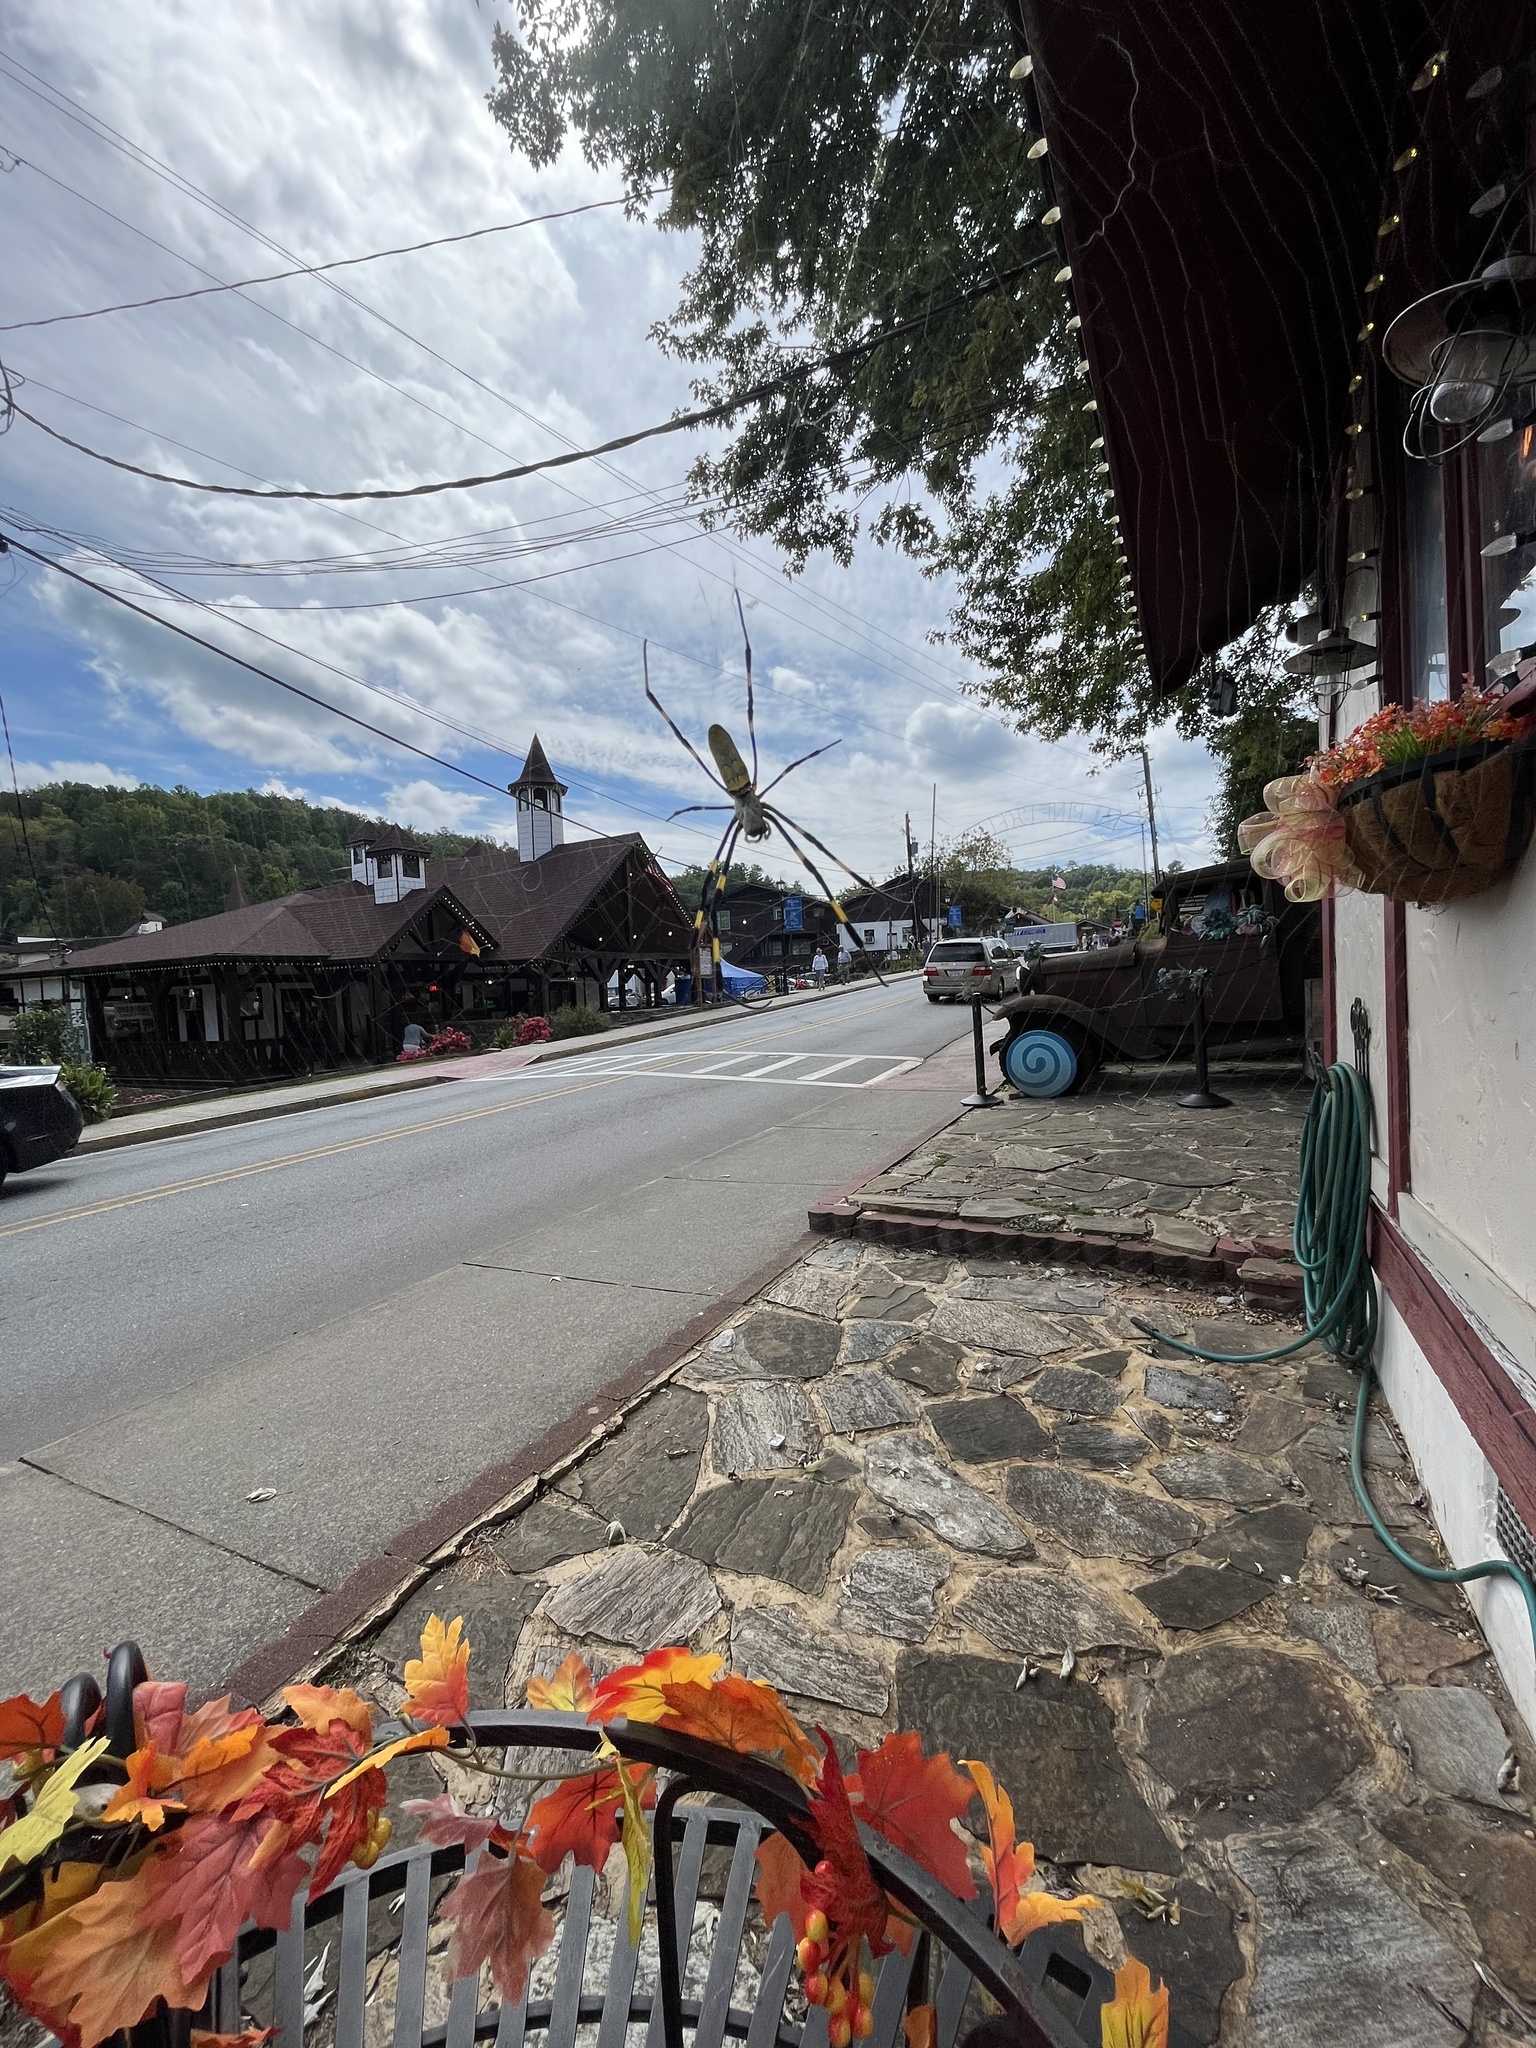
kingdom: Animalia
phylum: Arthropoda
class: Arachnida
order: Araneae
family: Araneidae
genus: Trichonephila
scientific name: Trichonephila clavata
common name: Jorō spider
